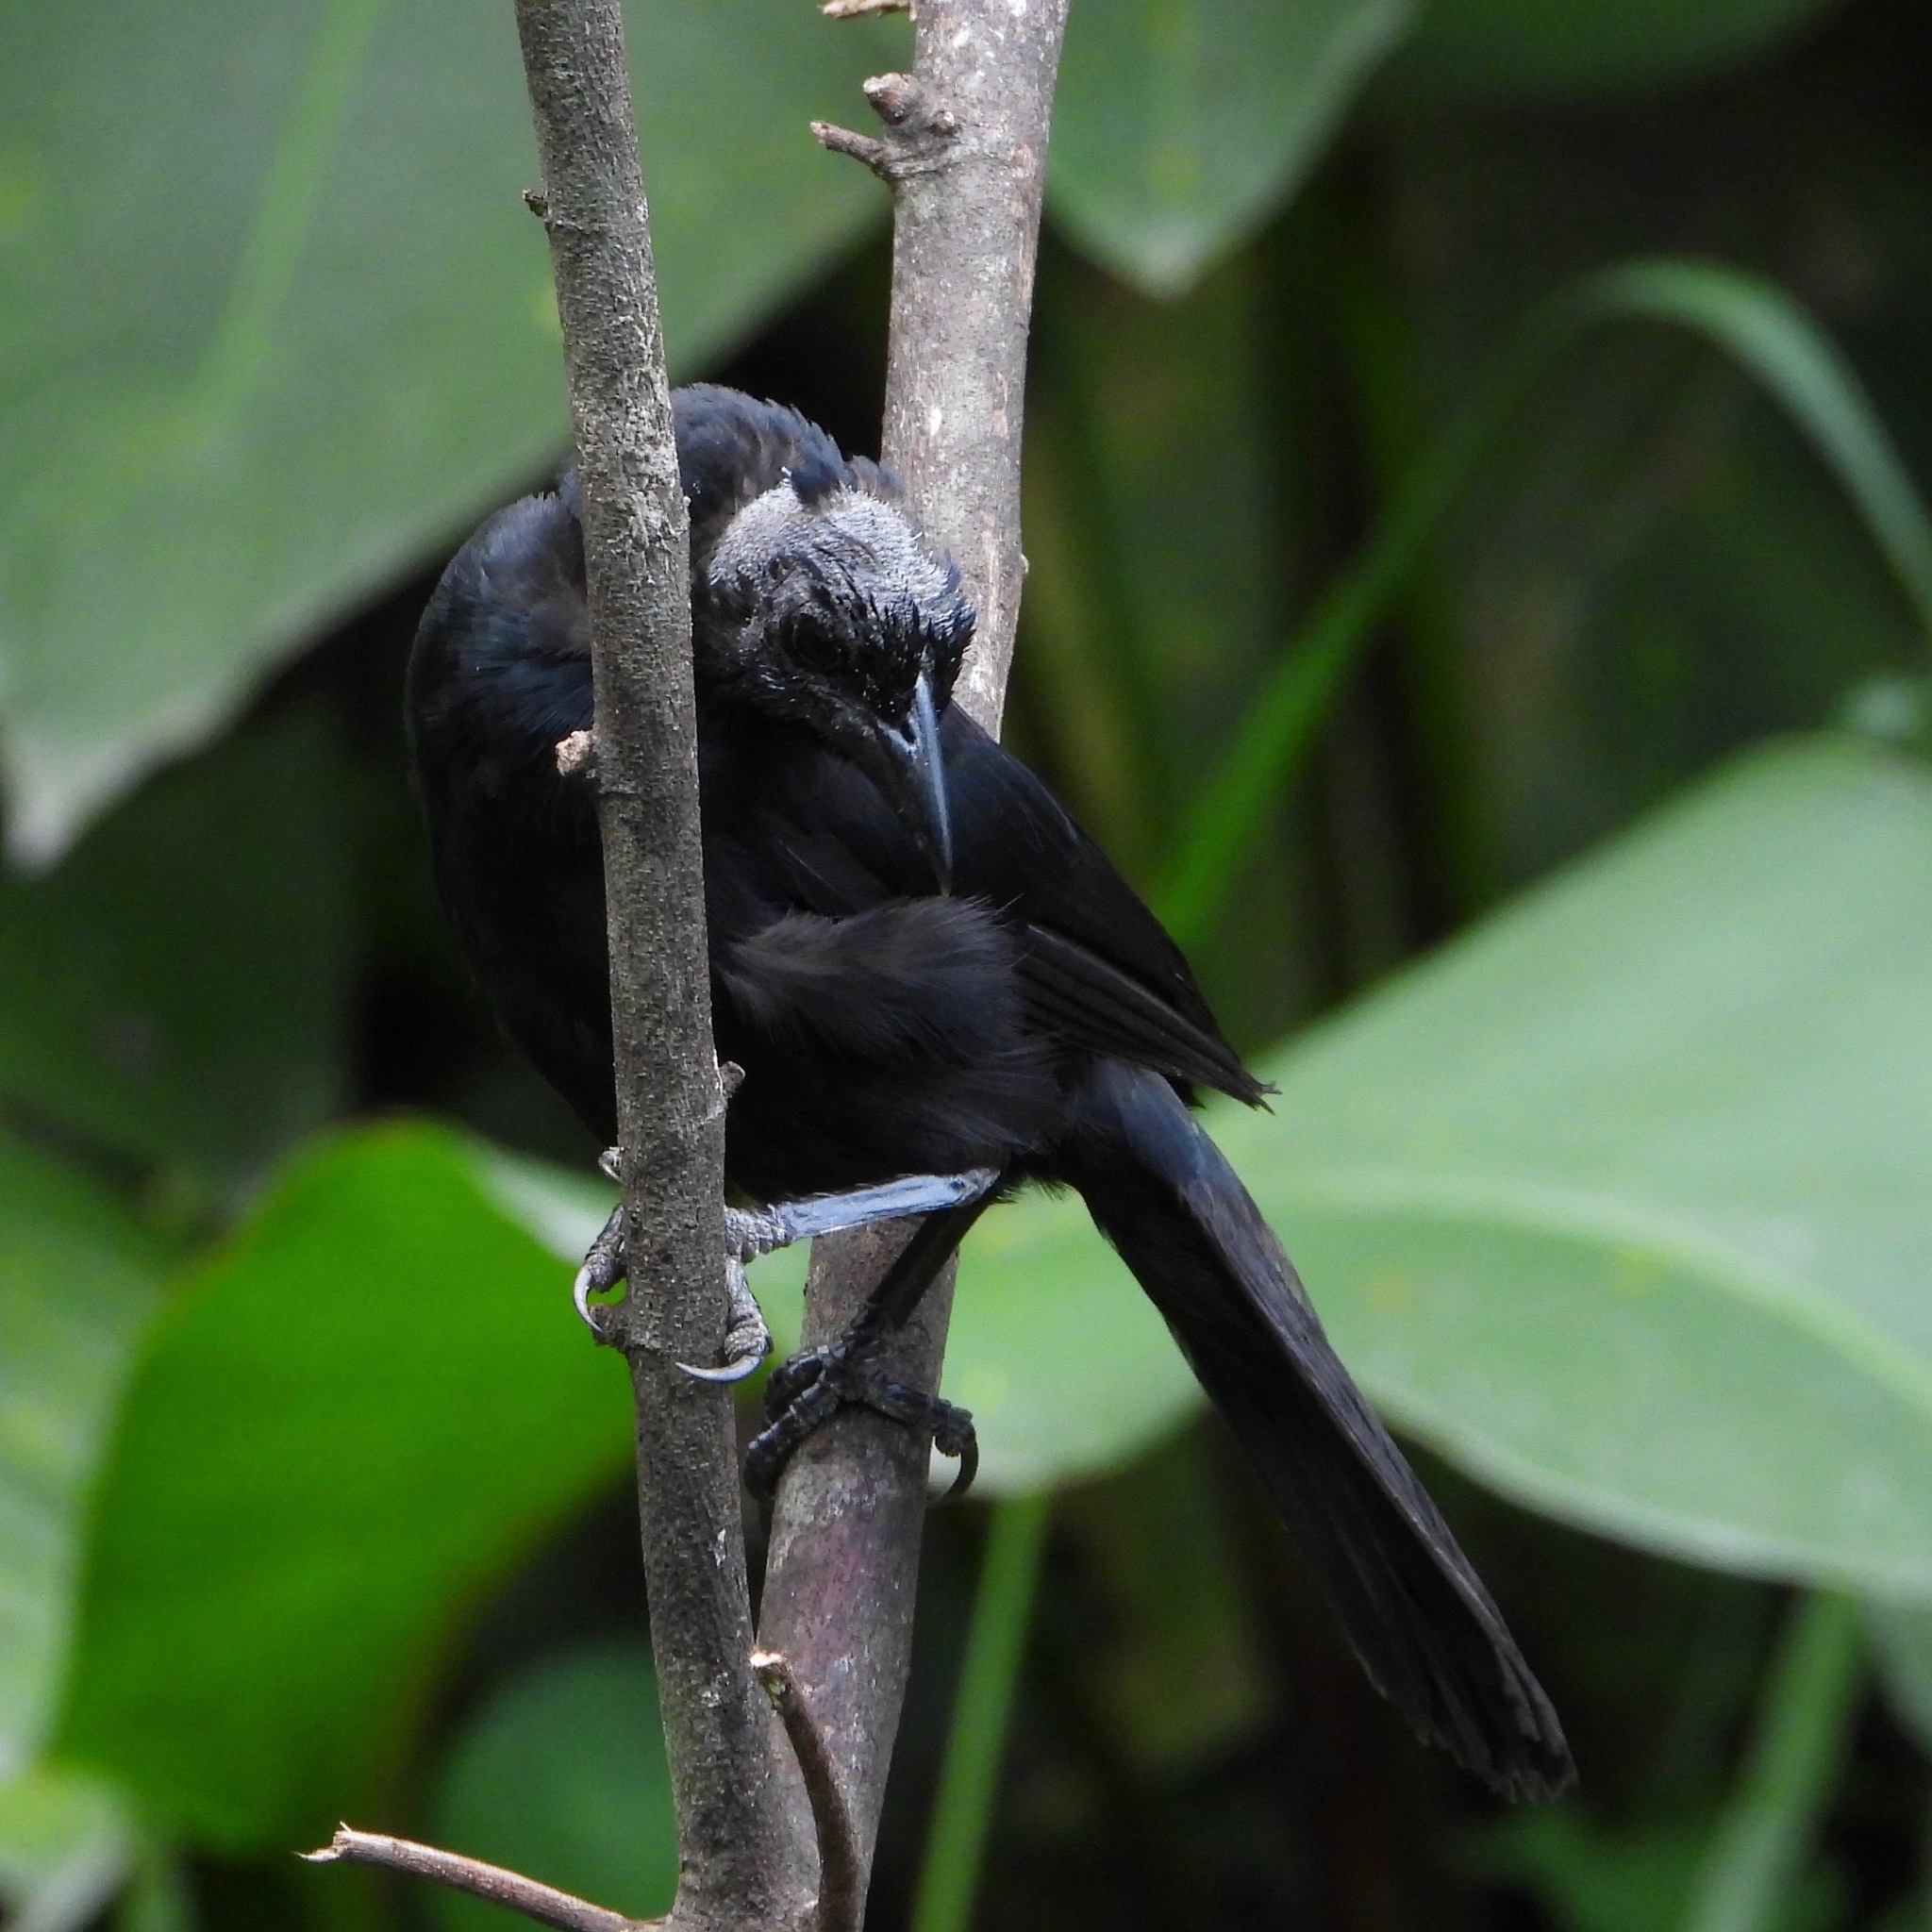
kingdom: Animalia
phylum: Chordata
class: Aves
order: Passeriformes
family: Icteridae
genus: Dives
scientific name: Dives dives
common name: Melodious blackbird
